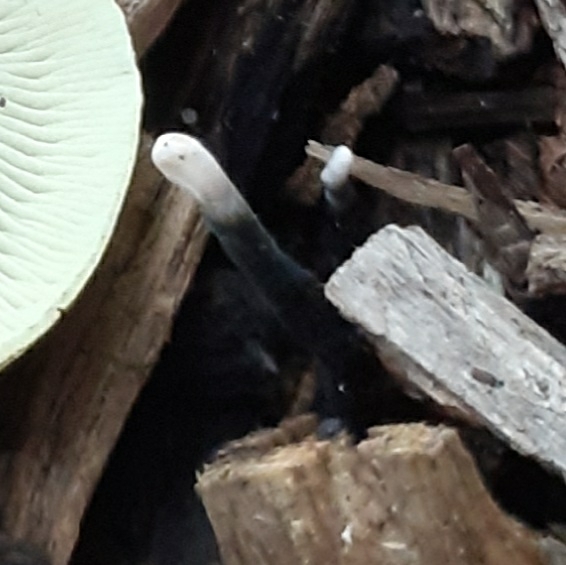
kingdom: Fungi
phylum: Ascomycota
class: Sordariomycetes
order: Xylariales
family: Xylariaceae
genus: Xylaria
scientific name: Xylaria hypoxylon
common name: Candle-snuff fungus
